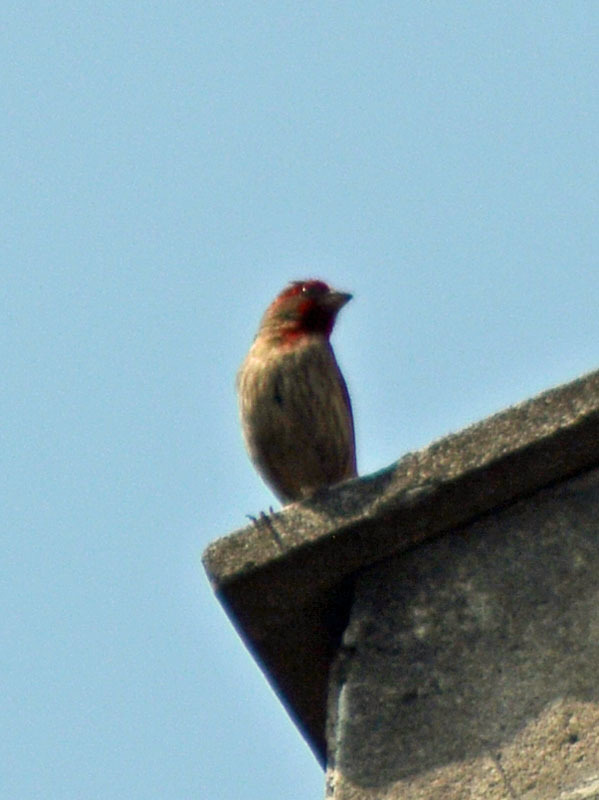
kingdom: Animalia
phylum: Chordata
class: Aves
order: Passeriformes
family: Fringillidae
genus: Haemorhous
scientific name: Haemorhous mexicanus
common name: House finch
